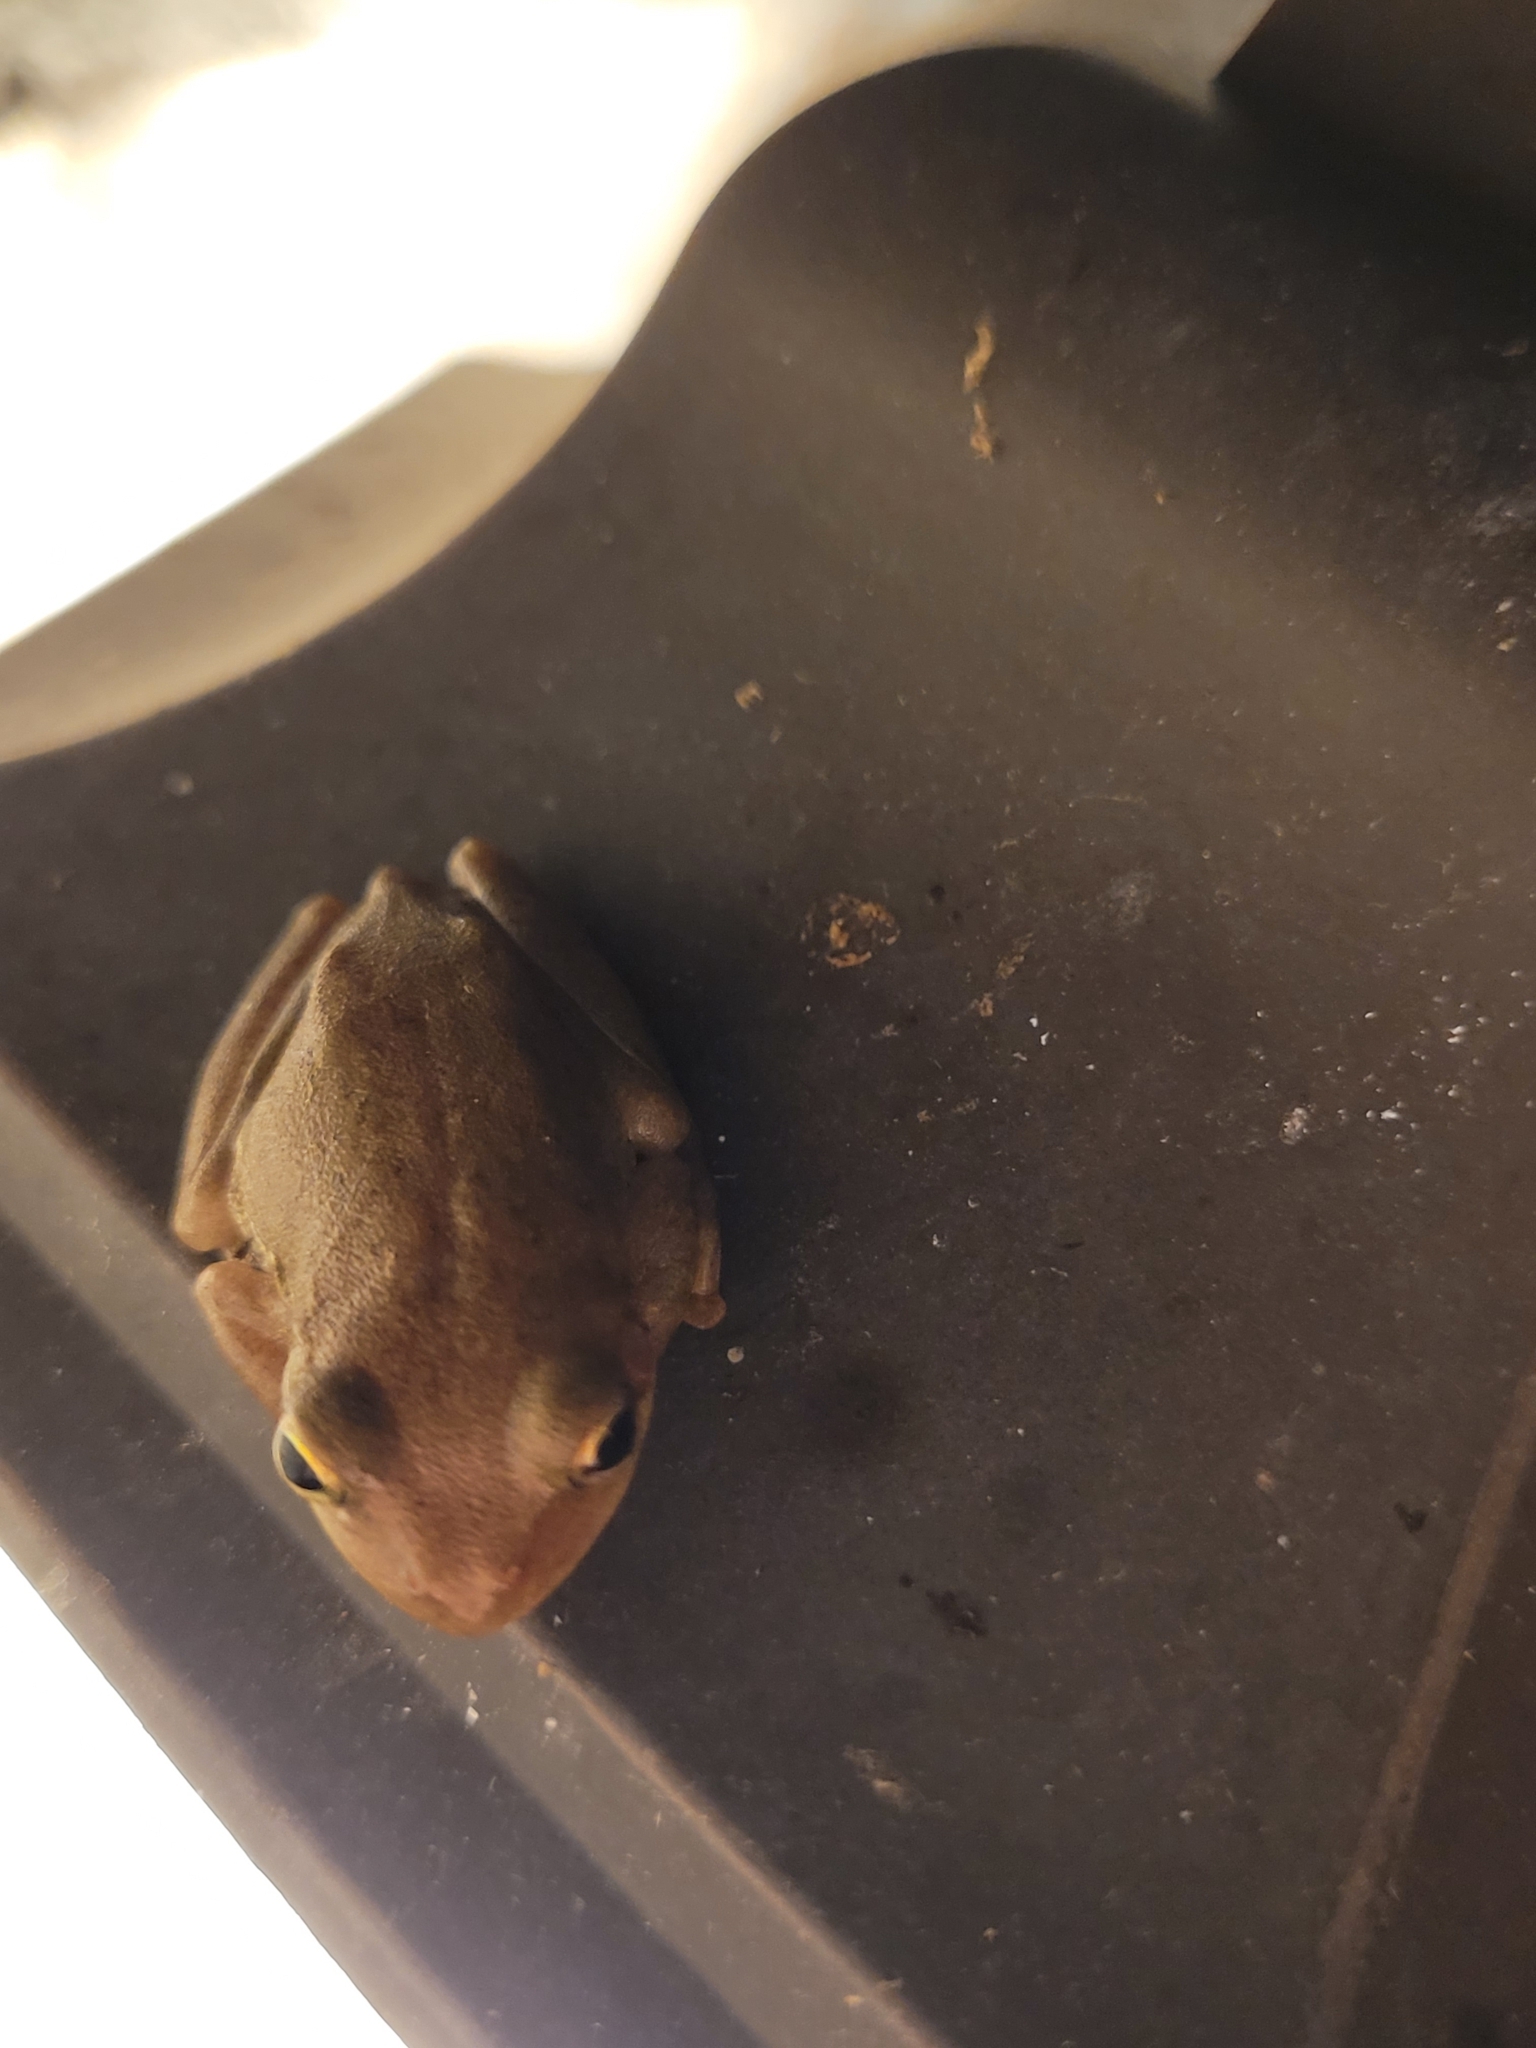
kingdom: Animalia
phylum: Chordata
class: Amphibia
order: Anura
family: Hylidae
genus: Dryophytes
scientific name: Dryophytes squirellus
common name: Squirrel treefrog
